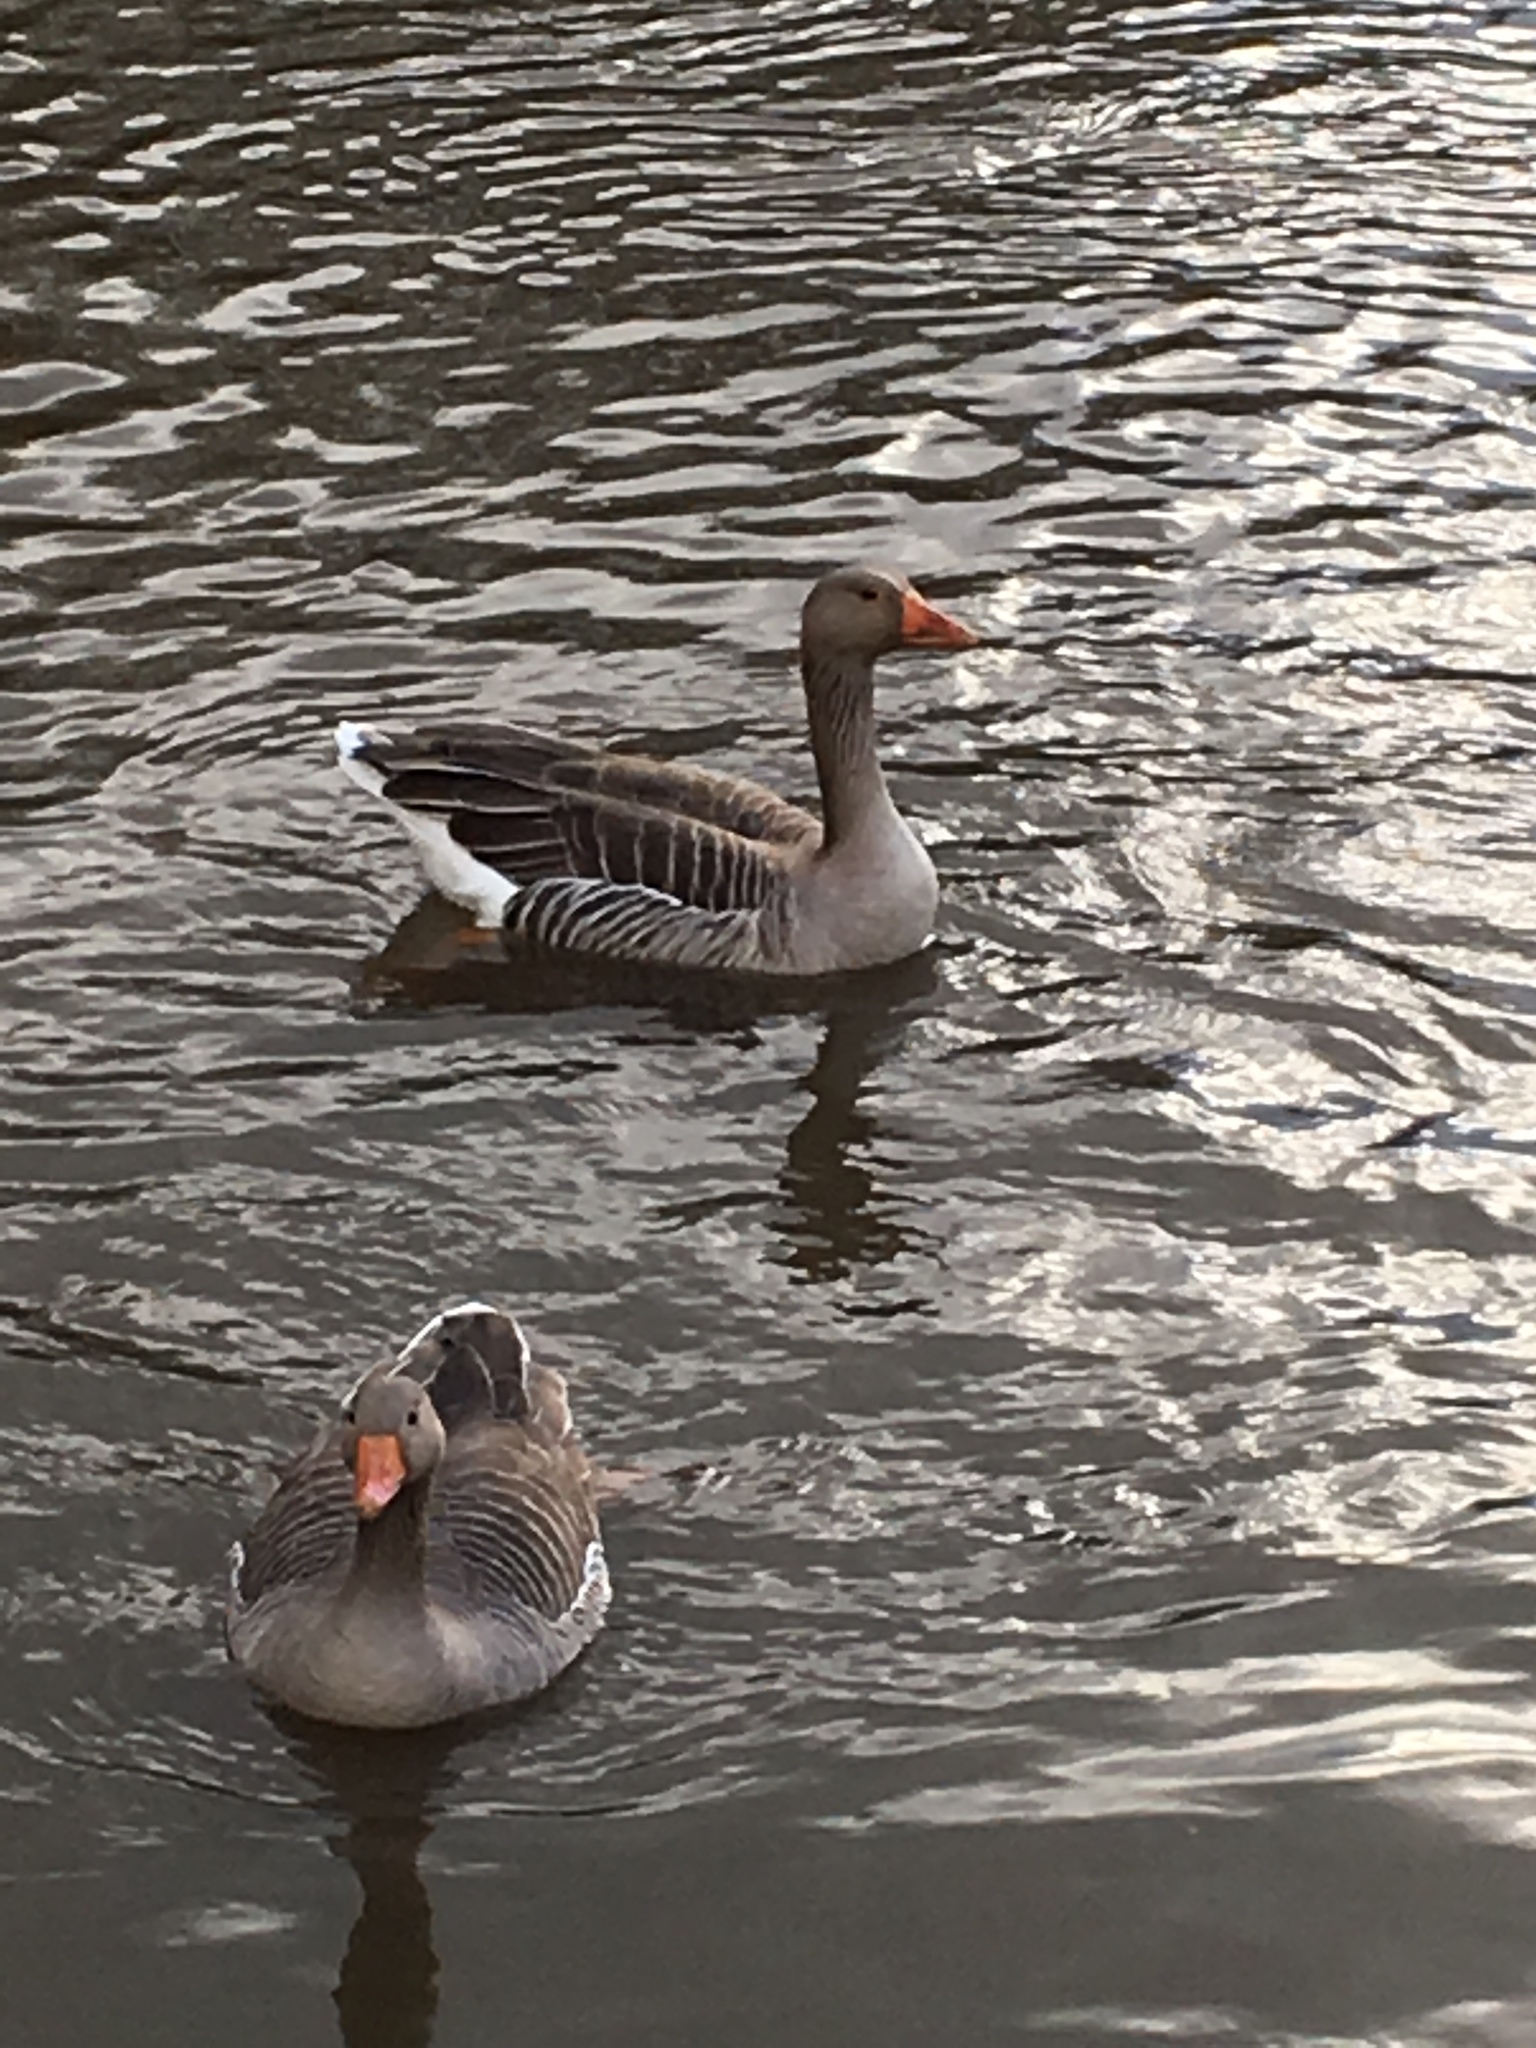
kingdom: Animalia
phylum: Chordata
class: Aves
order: Anseriformes
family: Anatidae
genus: Anser
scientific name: Anser anser
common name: Greylag goose
